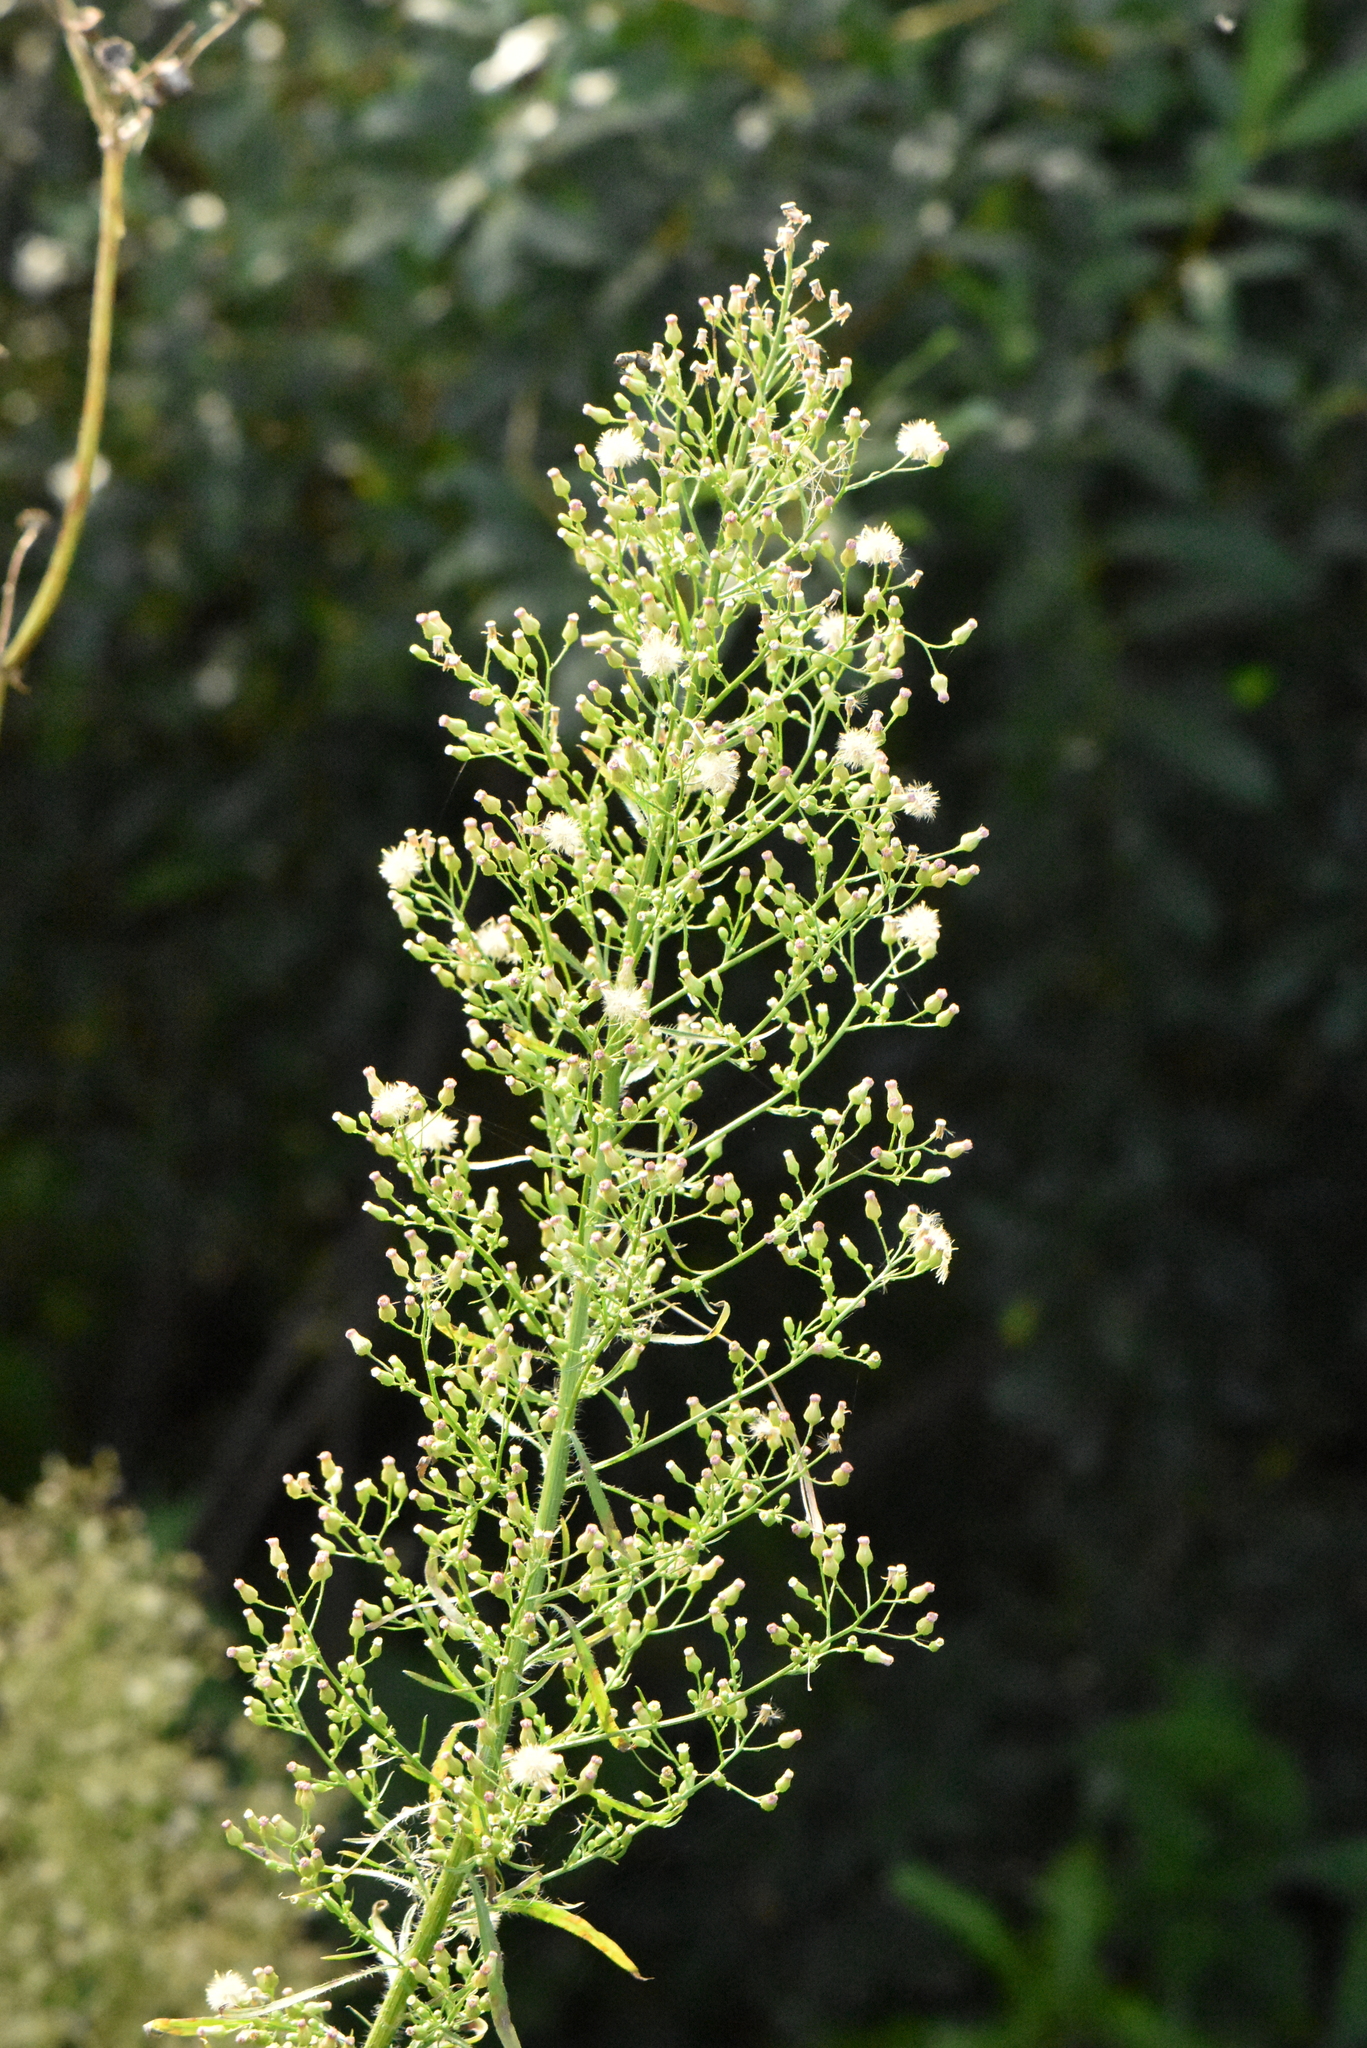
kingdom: Plantae
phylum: Tracheophyta
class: Magnoliopsida
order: Asterales
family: Asteraceae
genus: Erigeron
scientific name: Erigeron canadensis
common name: Canadian fleabane
